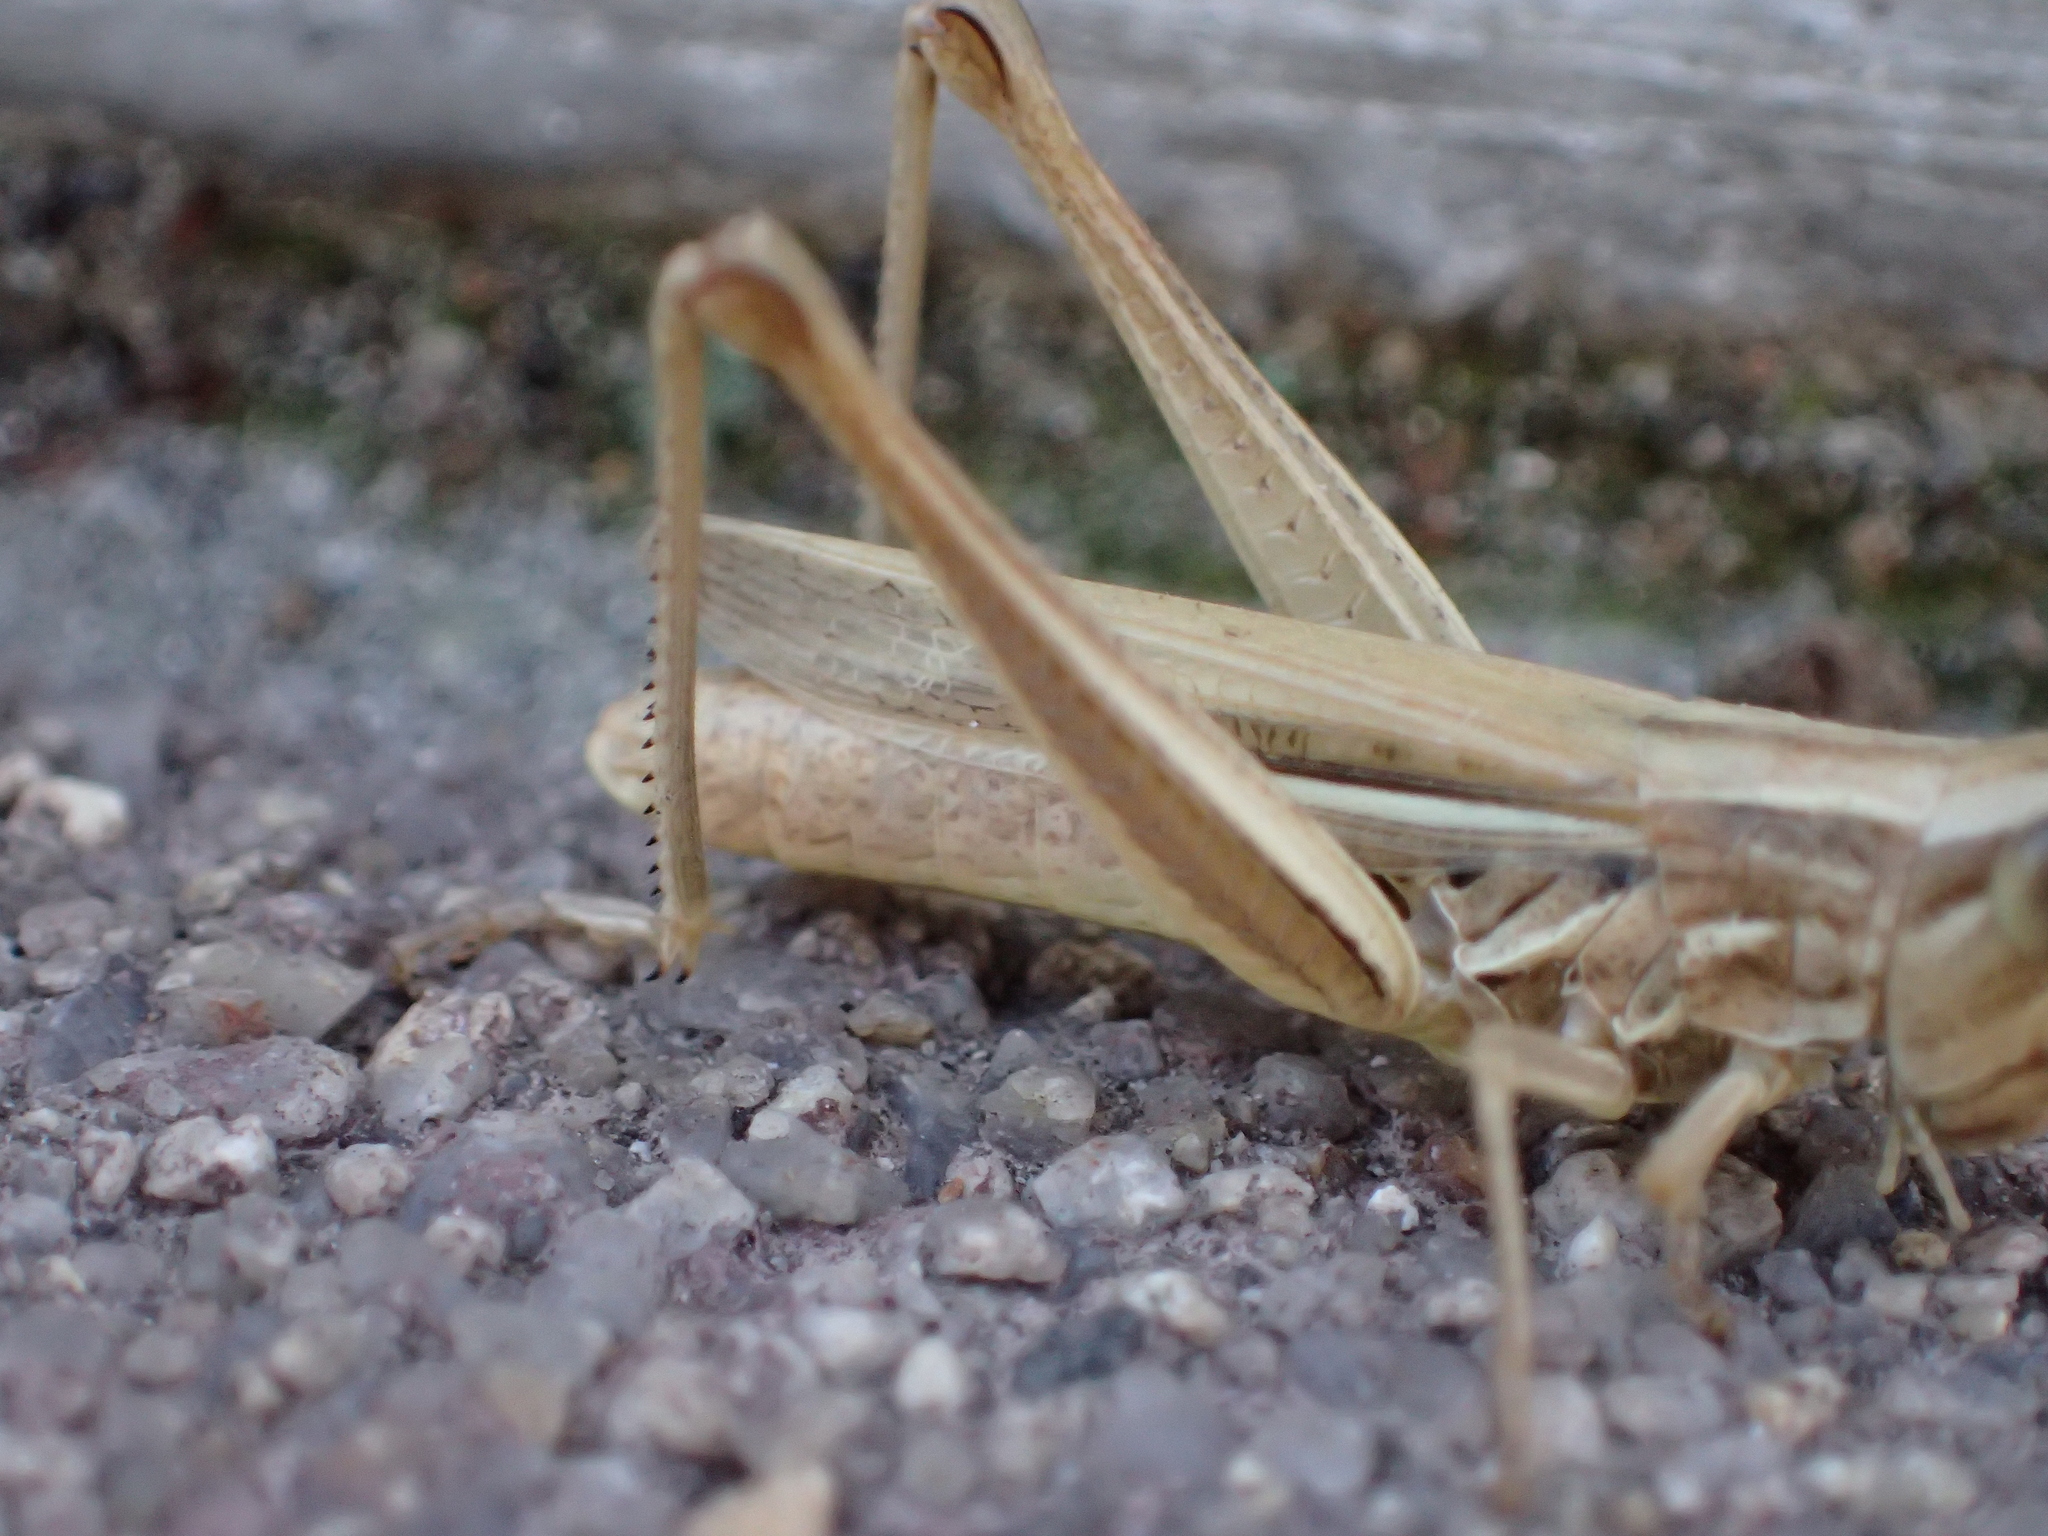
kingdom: Animalia
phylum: Arthropoda
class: Insecta
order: Orthoptera
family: Acrididae
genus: Euchorthippus
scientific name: Euchorthippus declivus
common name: Common straw grasshopper
